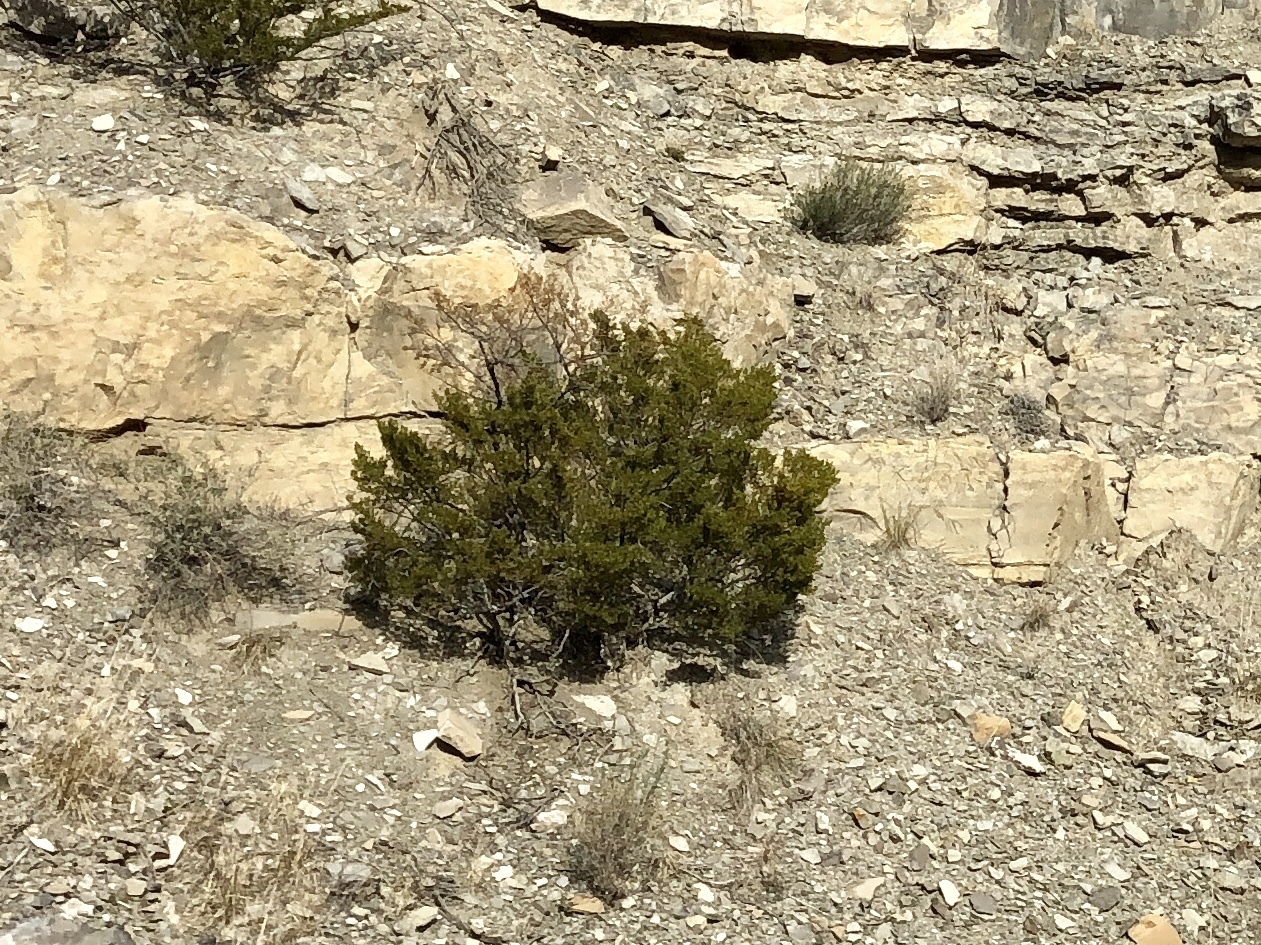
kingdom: Plantae
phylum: Tracheophyta
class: Magnoliopsida
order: Zygophyllales
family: Zygophyllaceae
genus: Larrea
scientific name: Larrea tridentata
